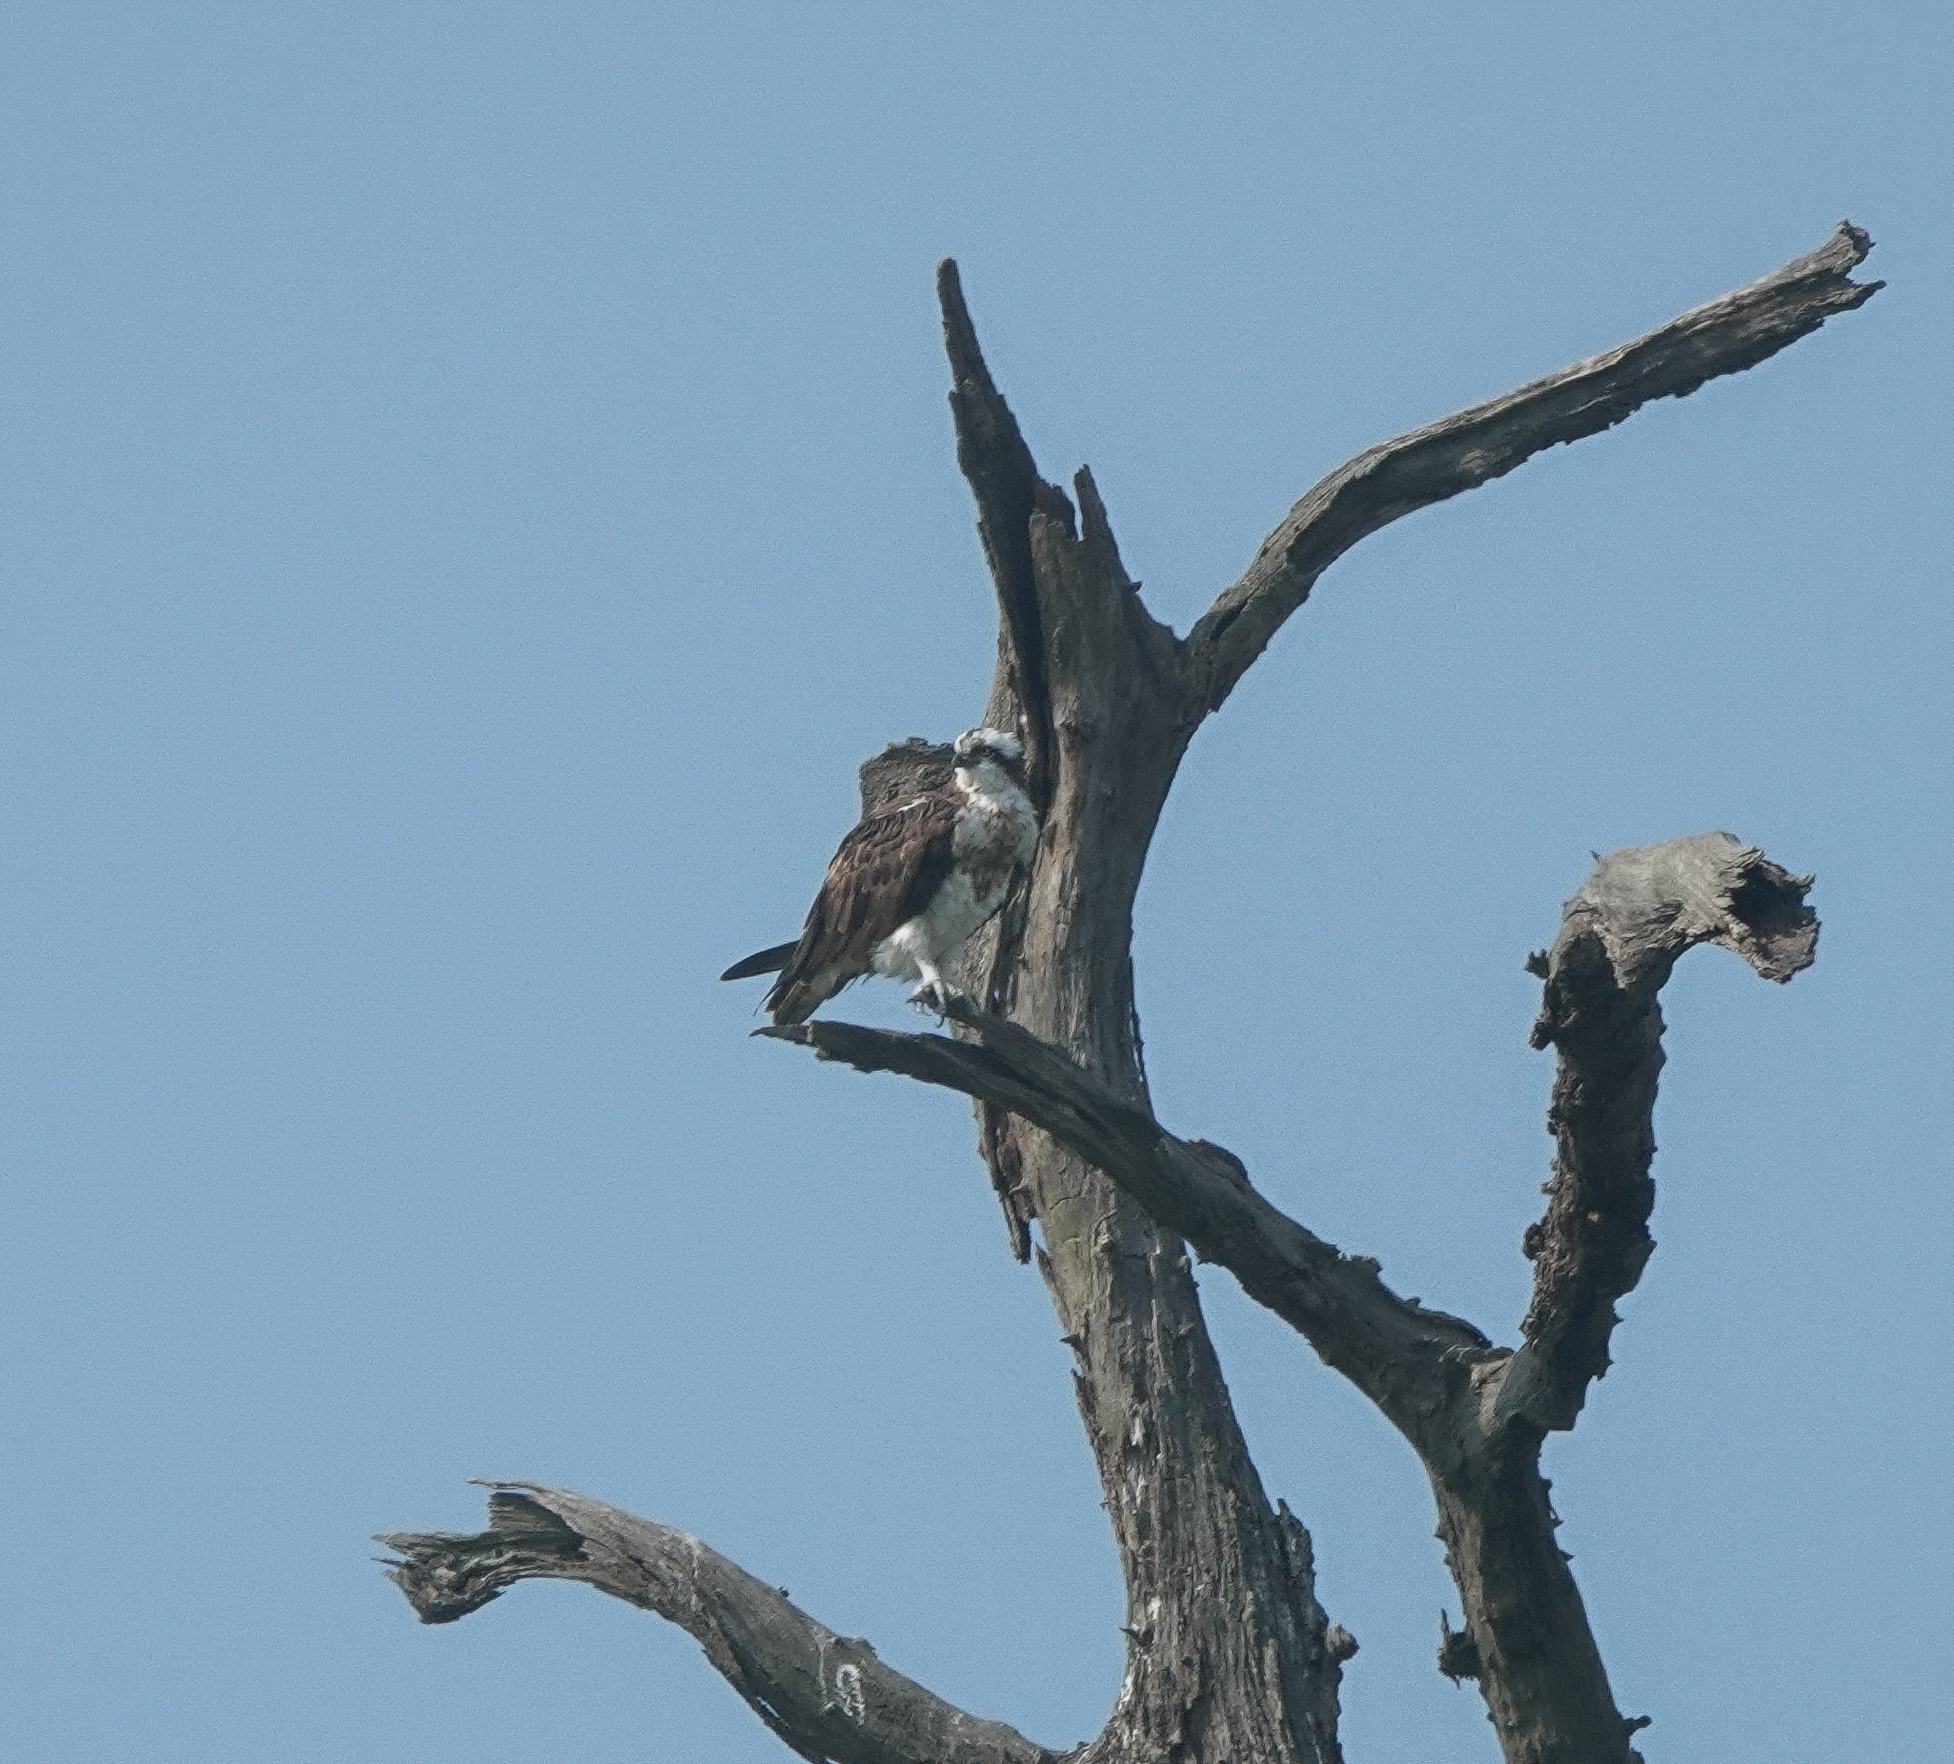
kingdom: Animalia
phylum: Chordata
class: Aves
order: Accipitriformes
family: Pandionidae
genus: Pandion
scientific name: Pandion haliaetus
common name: Osprey
